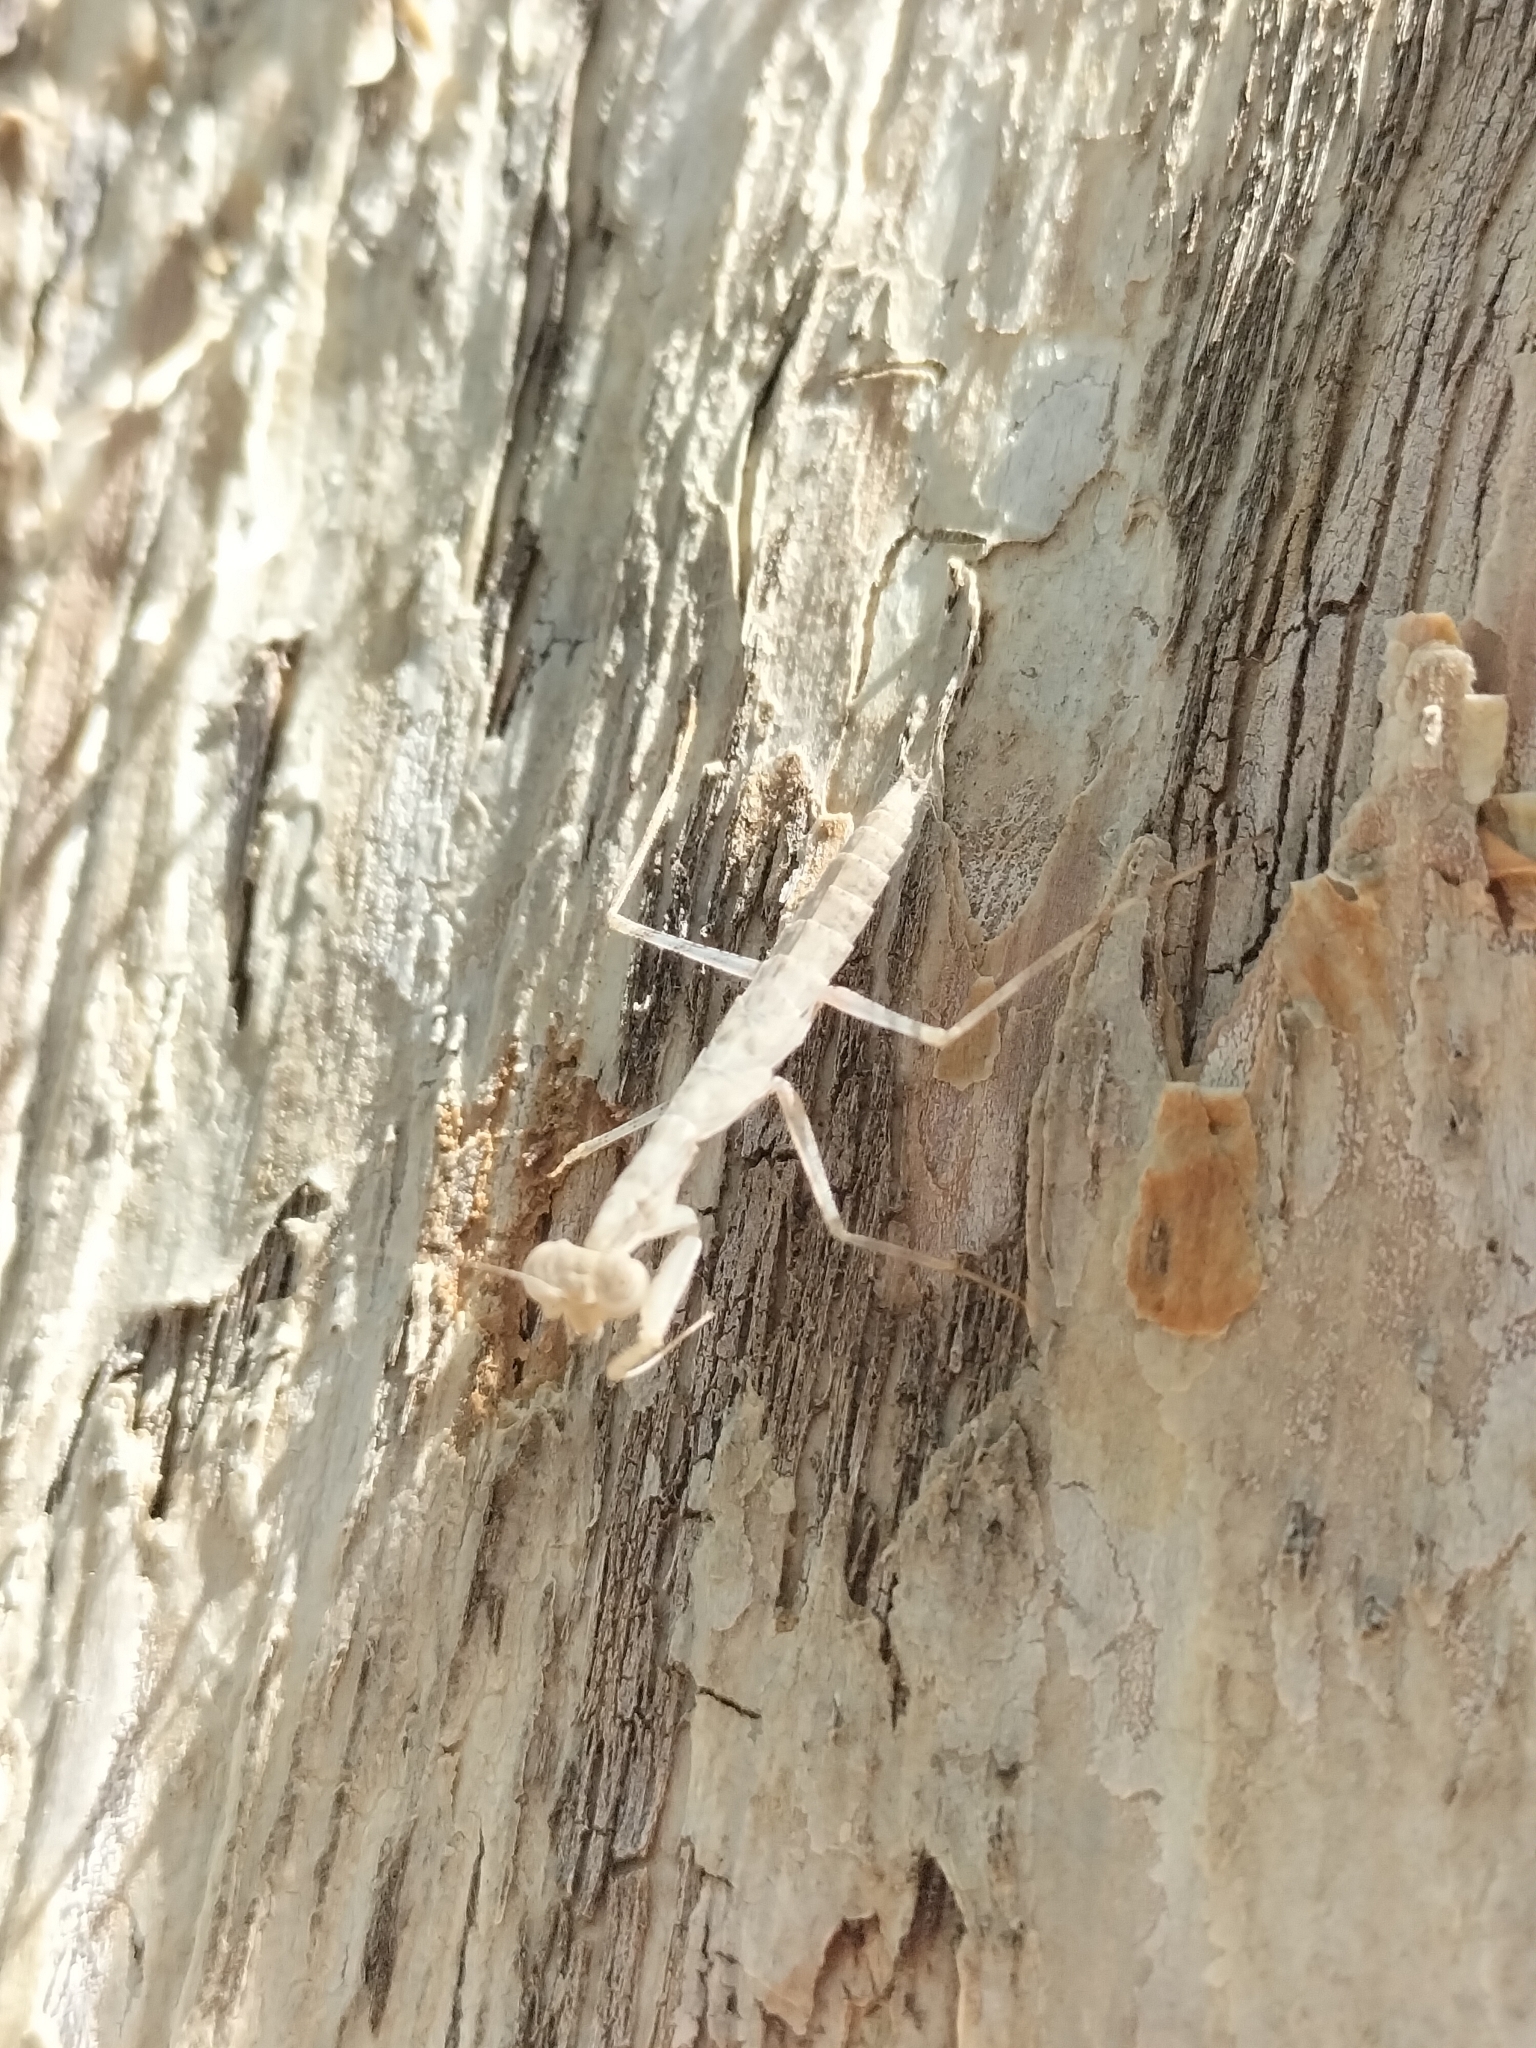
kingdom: Animalia
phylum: Arthropoda
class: Insecta
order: Mantodea
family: Nanomantidae
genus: Ima
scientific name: Ima
